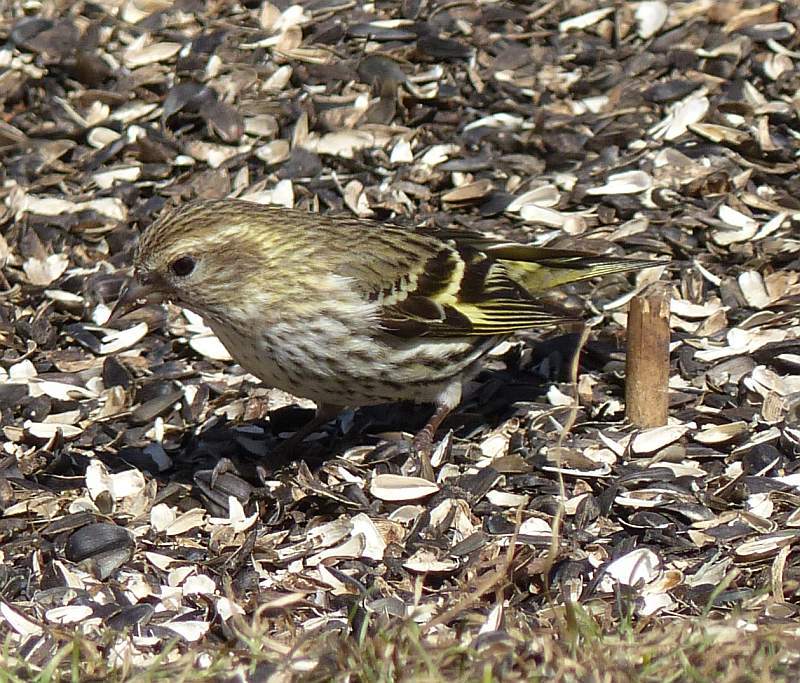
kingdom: Animalia
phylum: Chordata
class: Aves
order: Passeriformes
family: Fringillidae
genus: Spinus
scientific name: Spinus pinus
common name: Pine siskin
